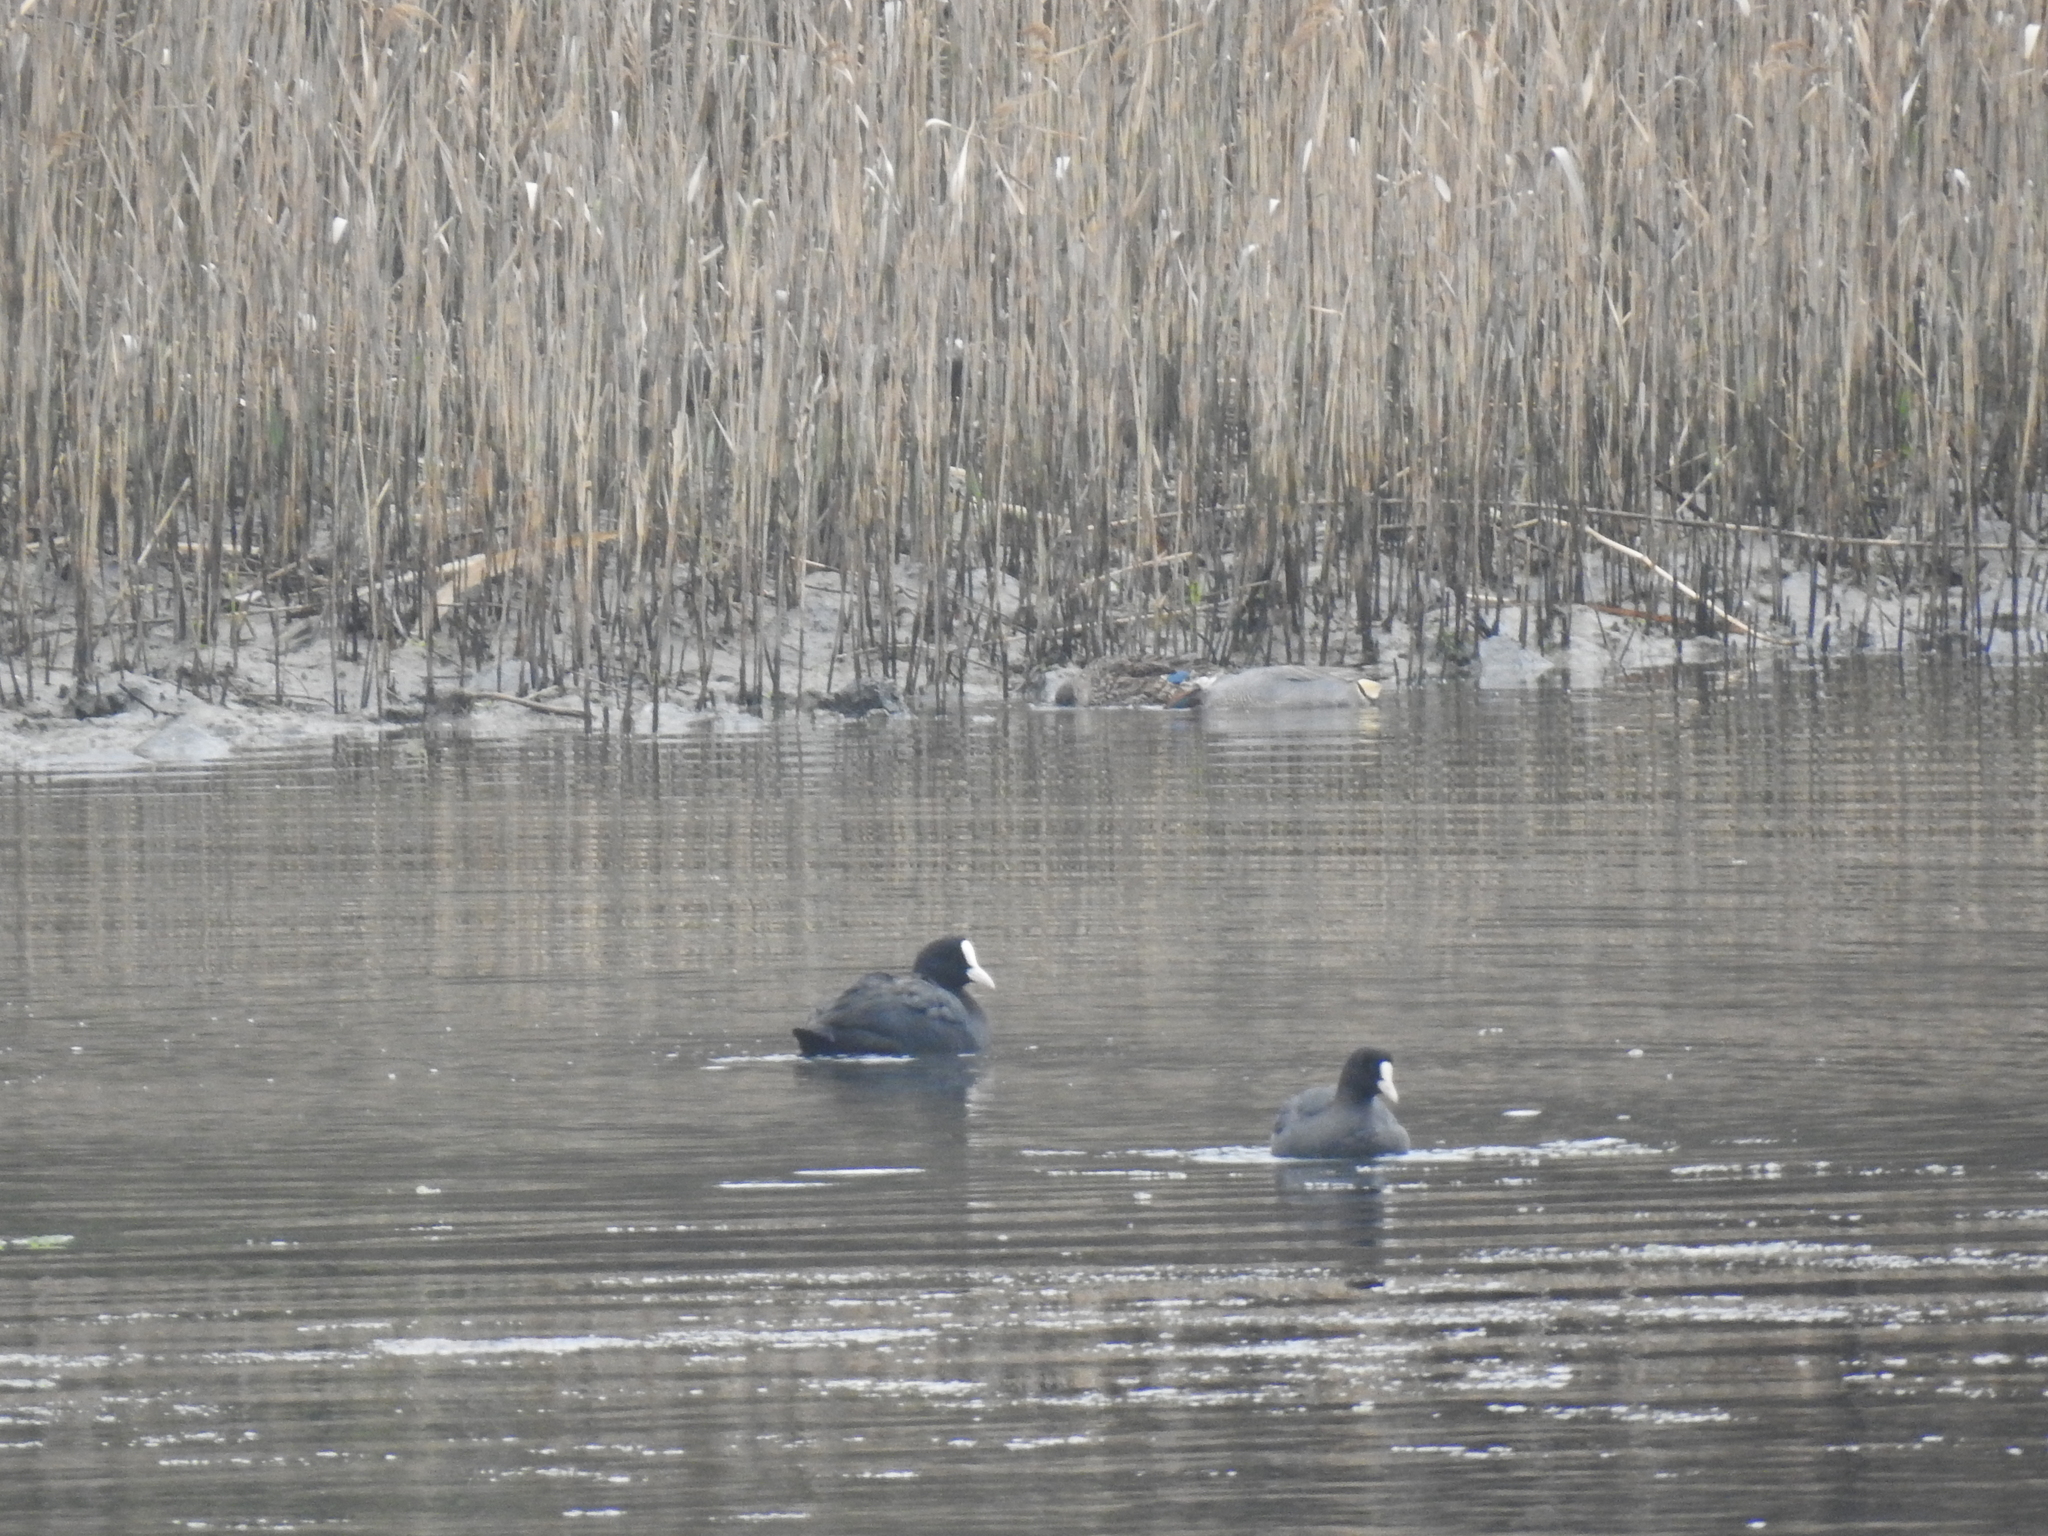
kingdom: Animalia
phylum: Chordata
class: Aves
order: Gruiformes
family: Rallidae
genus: Fulica
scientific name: Fulica atra
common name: Eurasian coot
